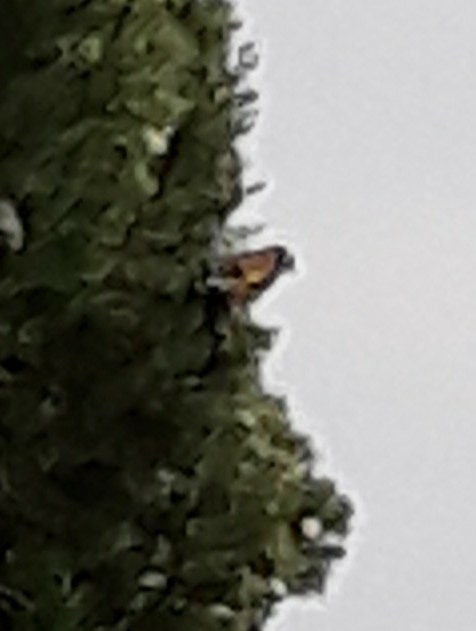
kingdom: Animalia
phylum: Chordata
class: Aves
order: Passeriformes
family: Fringillidae
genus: Carduelis
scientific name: Carduelis carduelis
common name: European goldfinch
